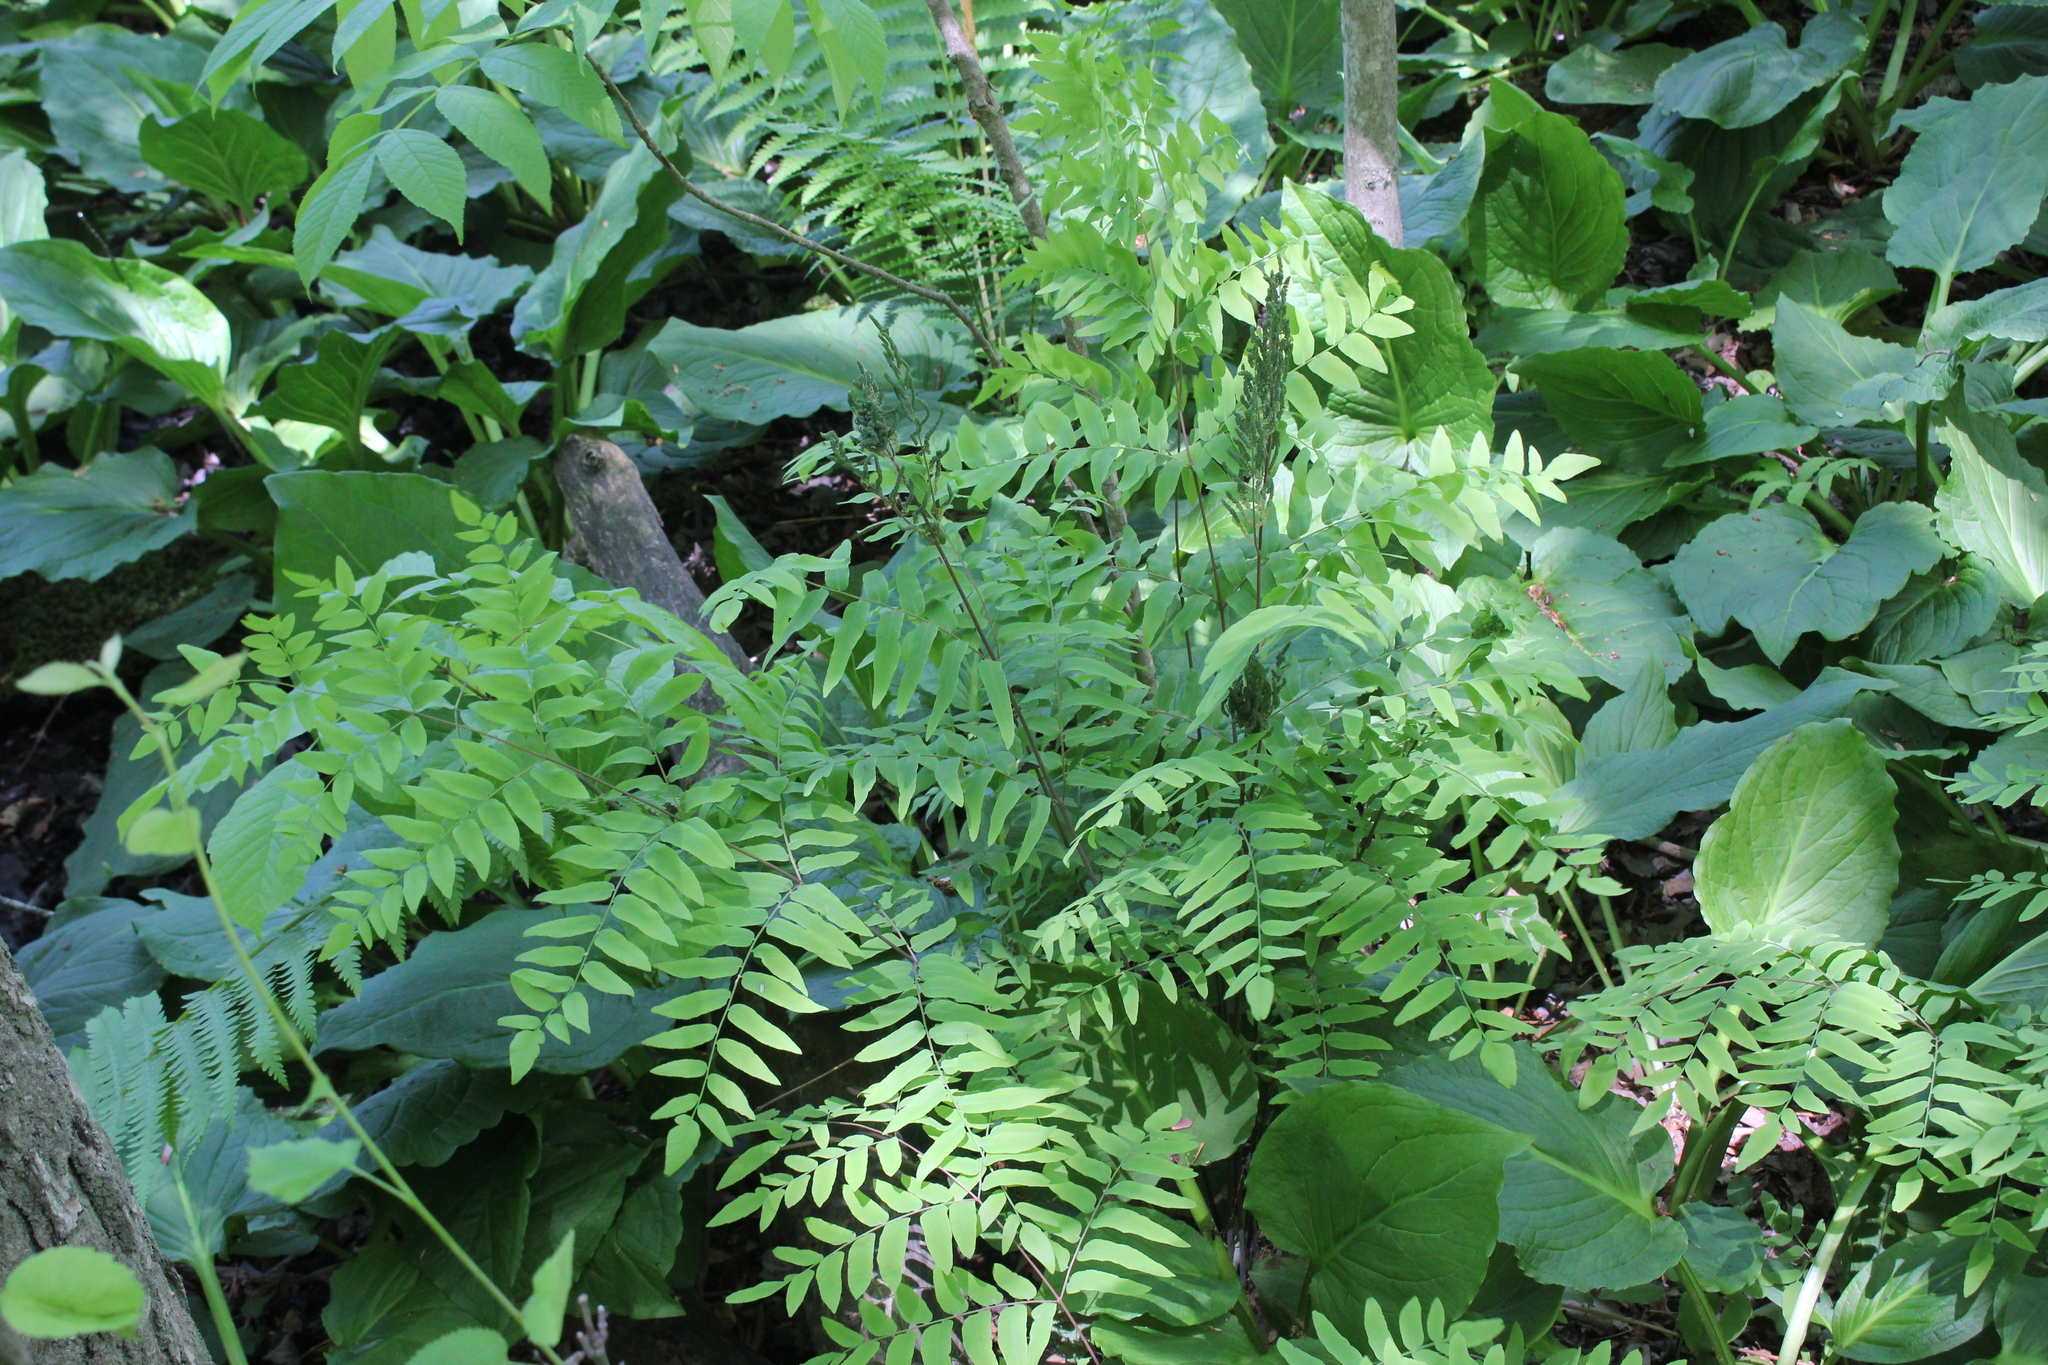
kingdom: Plantae
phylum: Tracheophyta
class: Polypodiopsida
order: Osmundales
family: Osmundaceae
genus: Osmunda
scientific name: Osmunda spectabilis
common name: American royal fern
